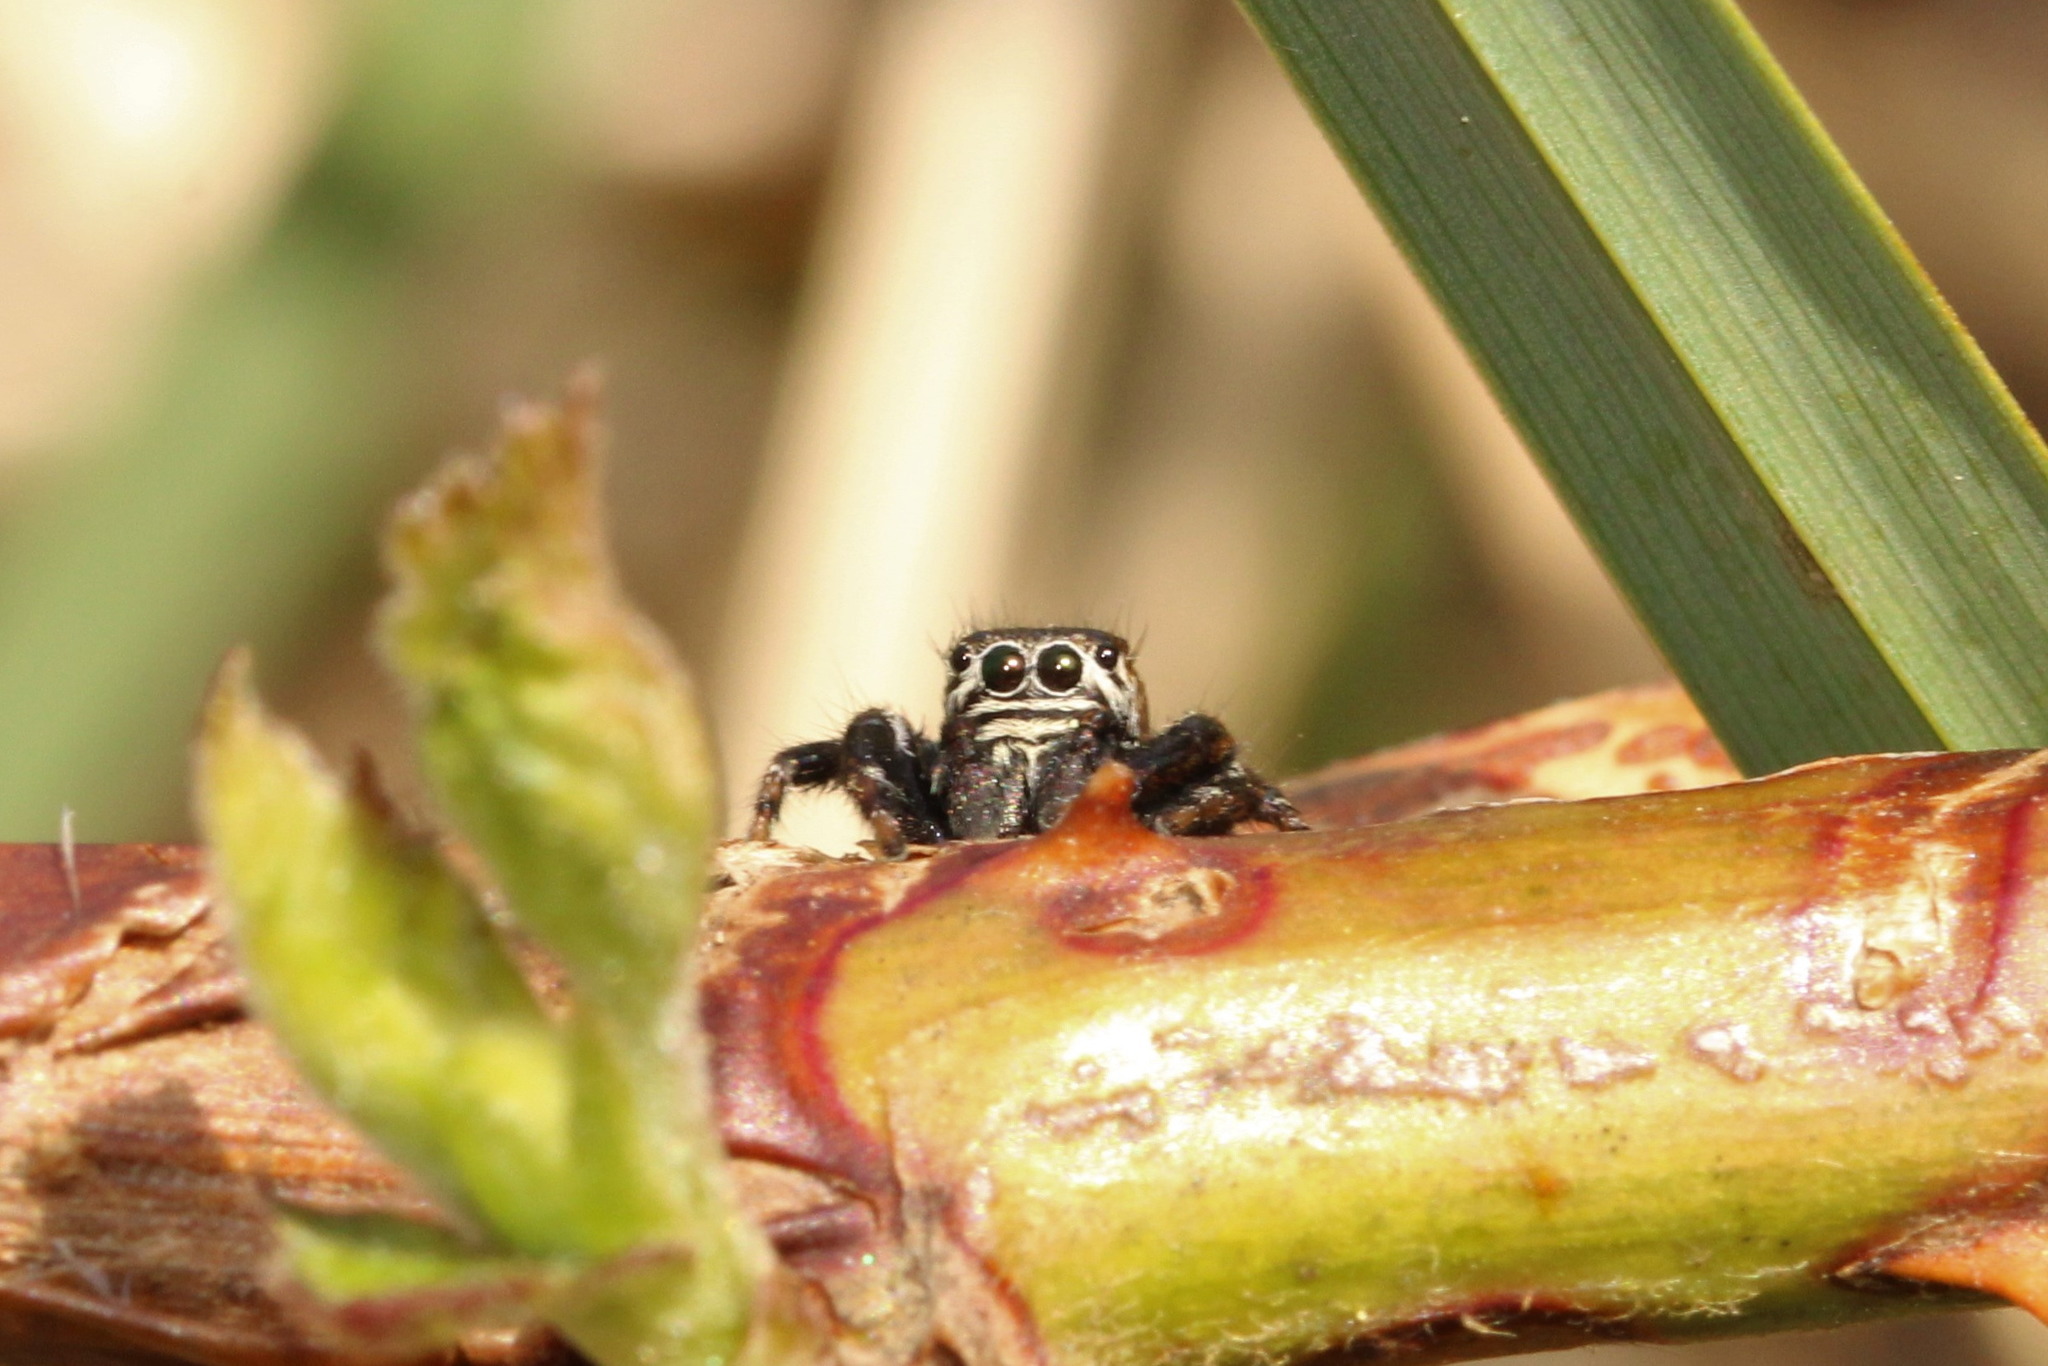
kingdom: Animalia
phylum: Arthropoda
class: Arachnida
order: Araneae
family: Salticidae
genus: Evarcha
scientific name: Evarcha arcuata
